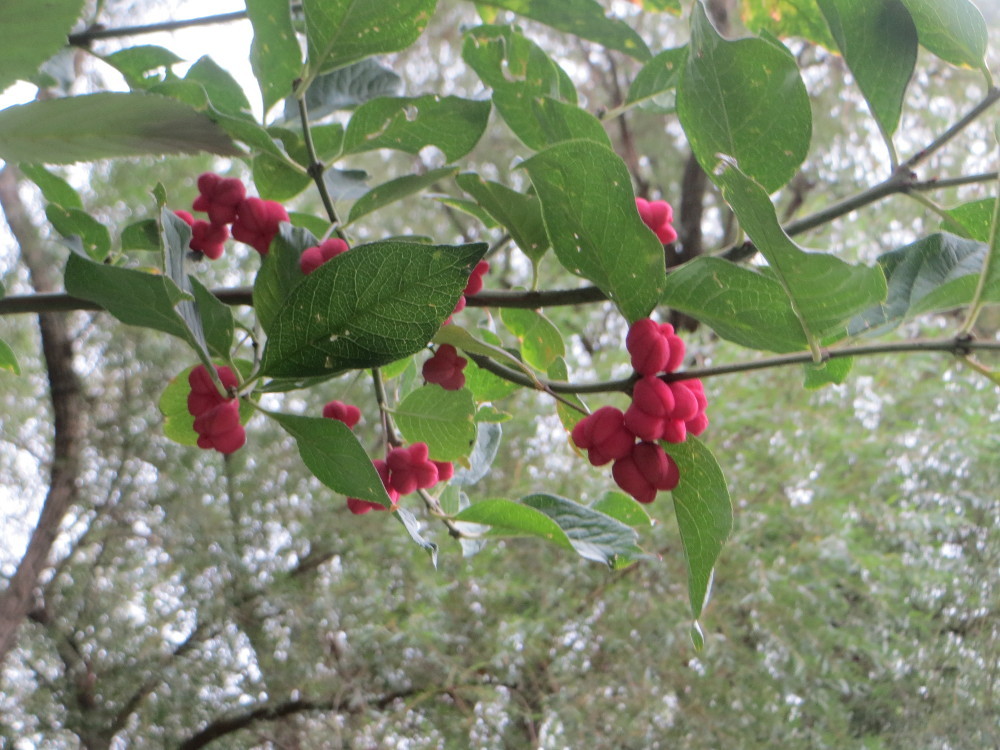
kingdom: Plantae
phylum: Tracheophyta
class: Magnoliopsida
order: Celastrales
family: Celastraceae
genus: Euonymus
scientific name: Euonymus europaeus
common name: Spindle
